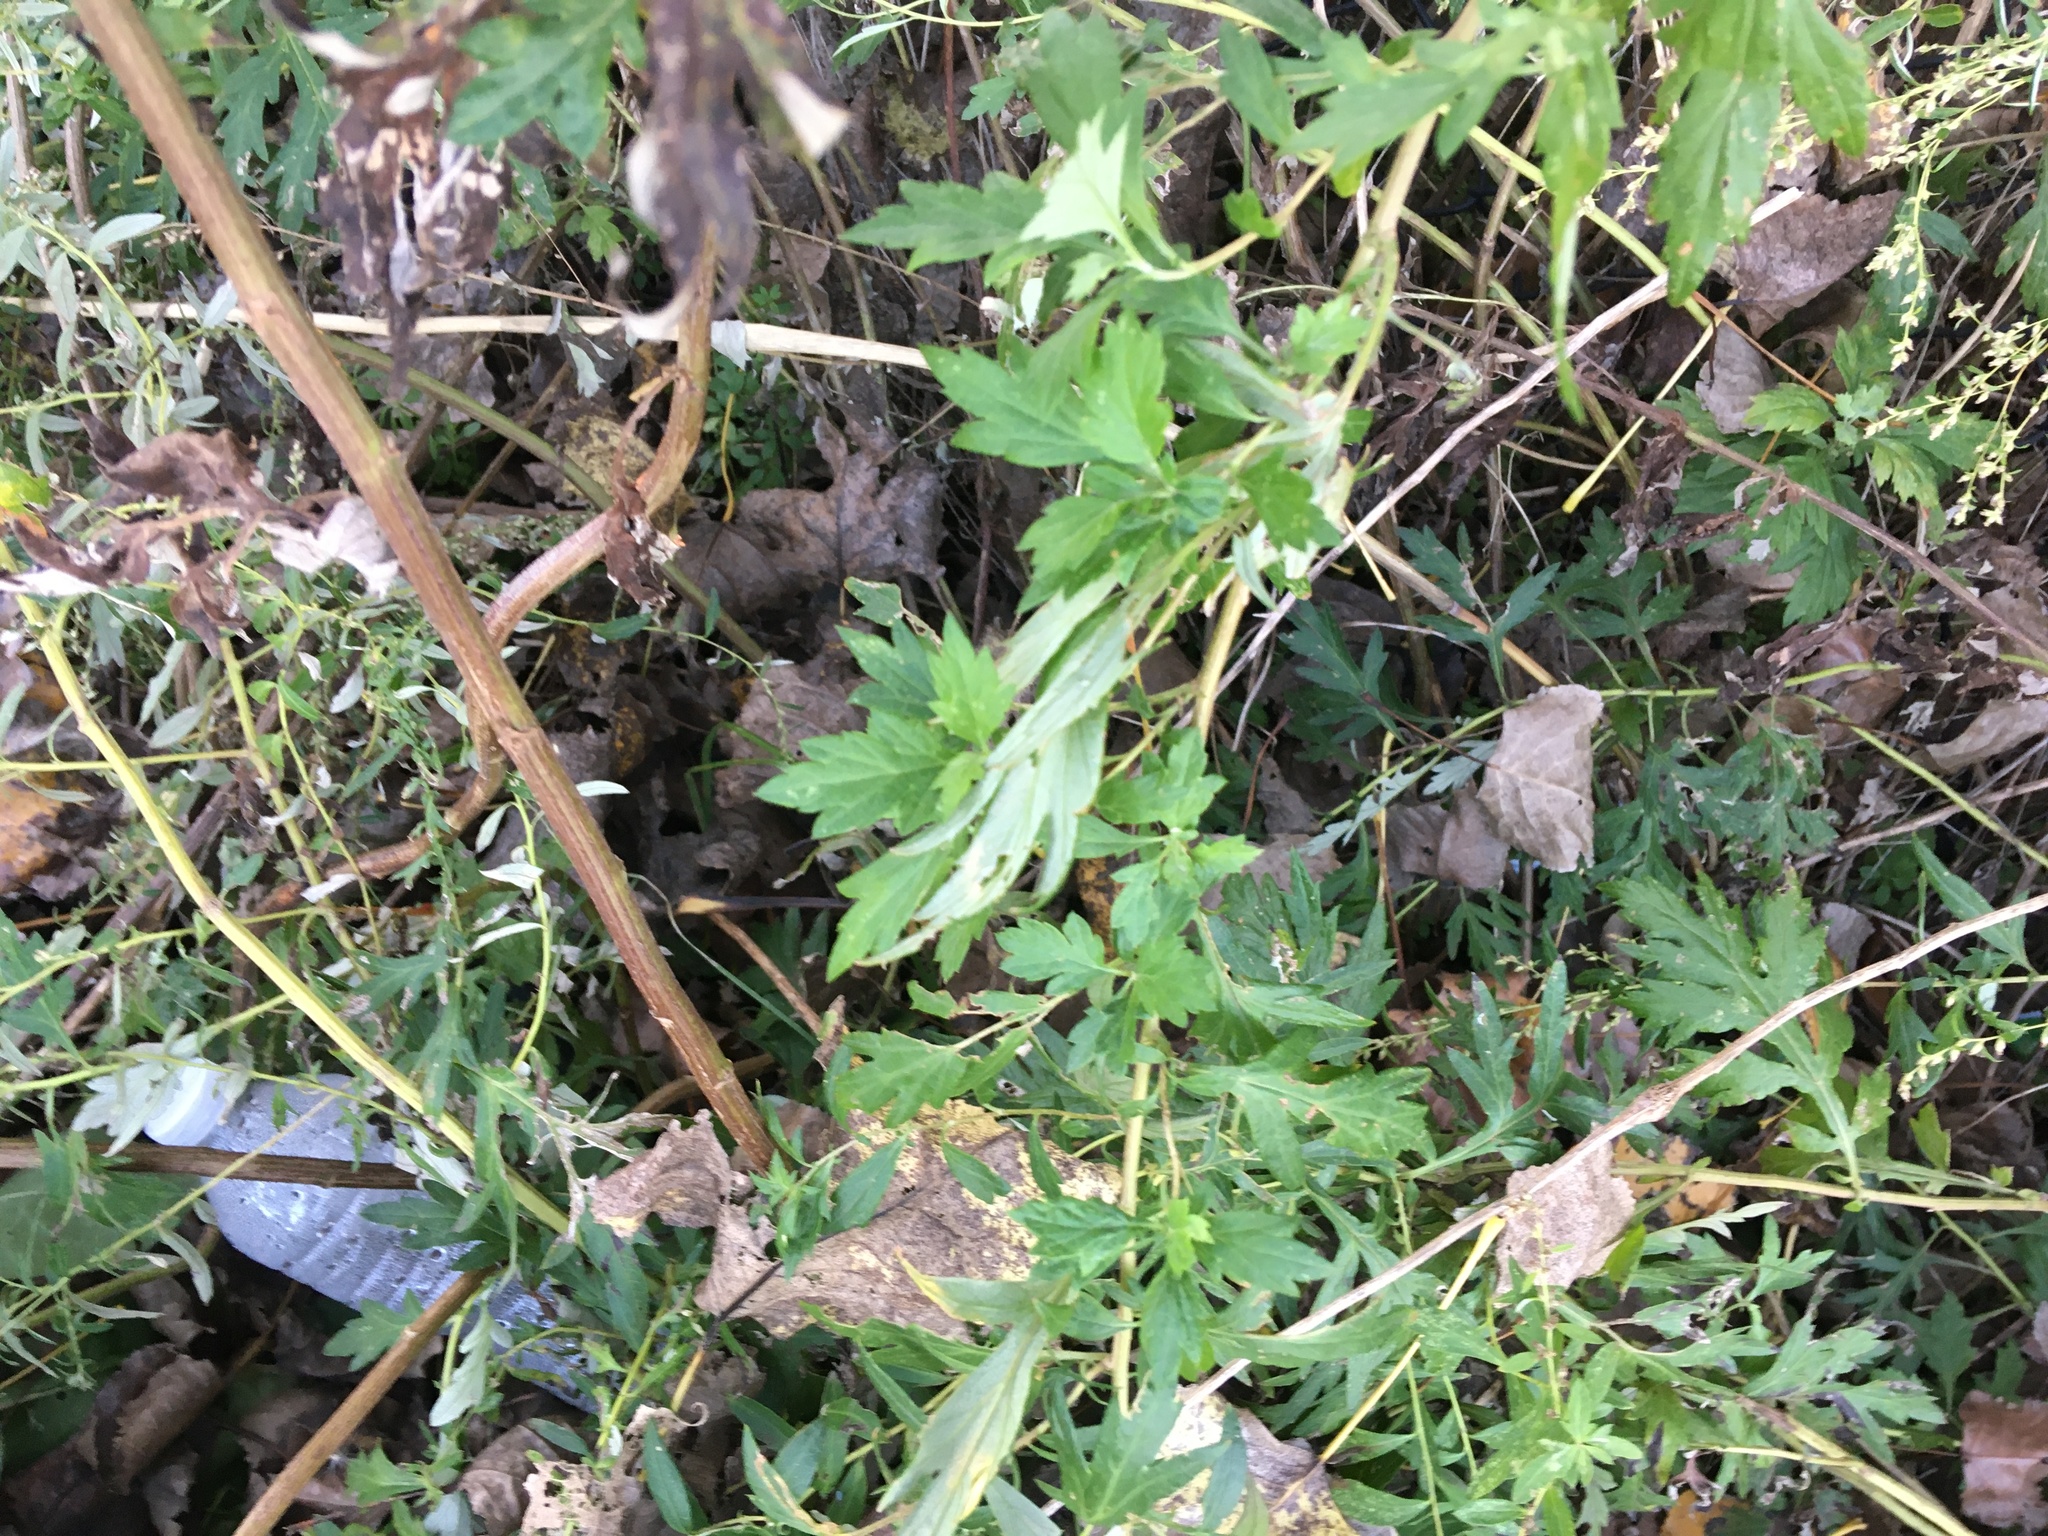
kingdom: Plantae
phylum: Tracheophyta
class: Magnoliopsida
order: Asterales
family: Asteraceae
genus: Artemisia
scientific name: Artemisia vulgaris
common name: Mugwort
